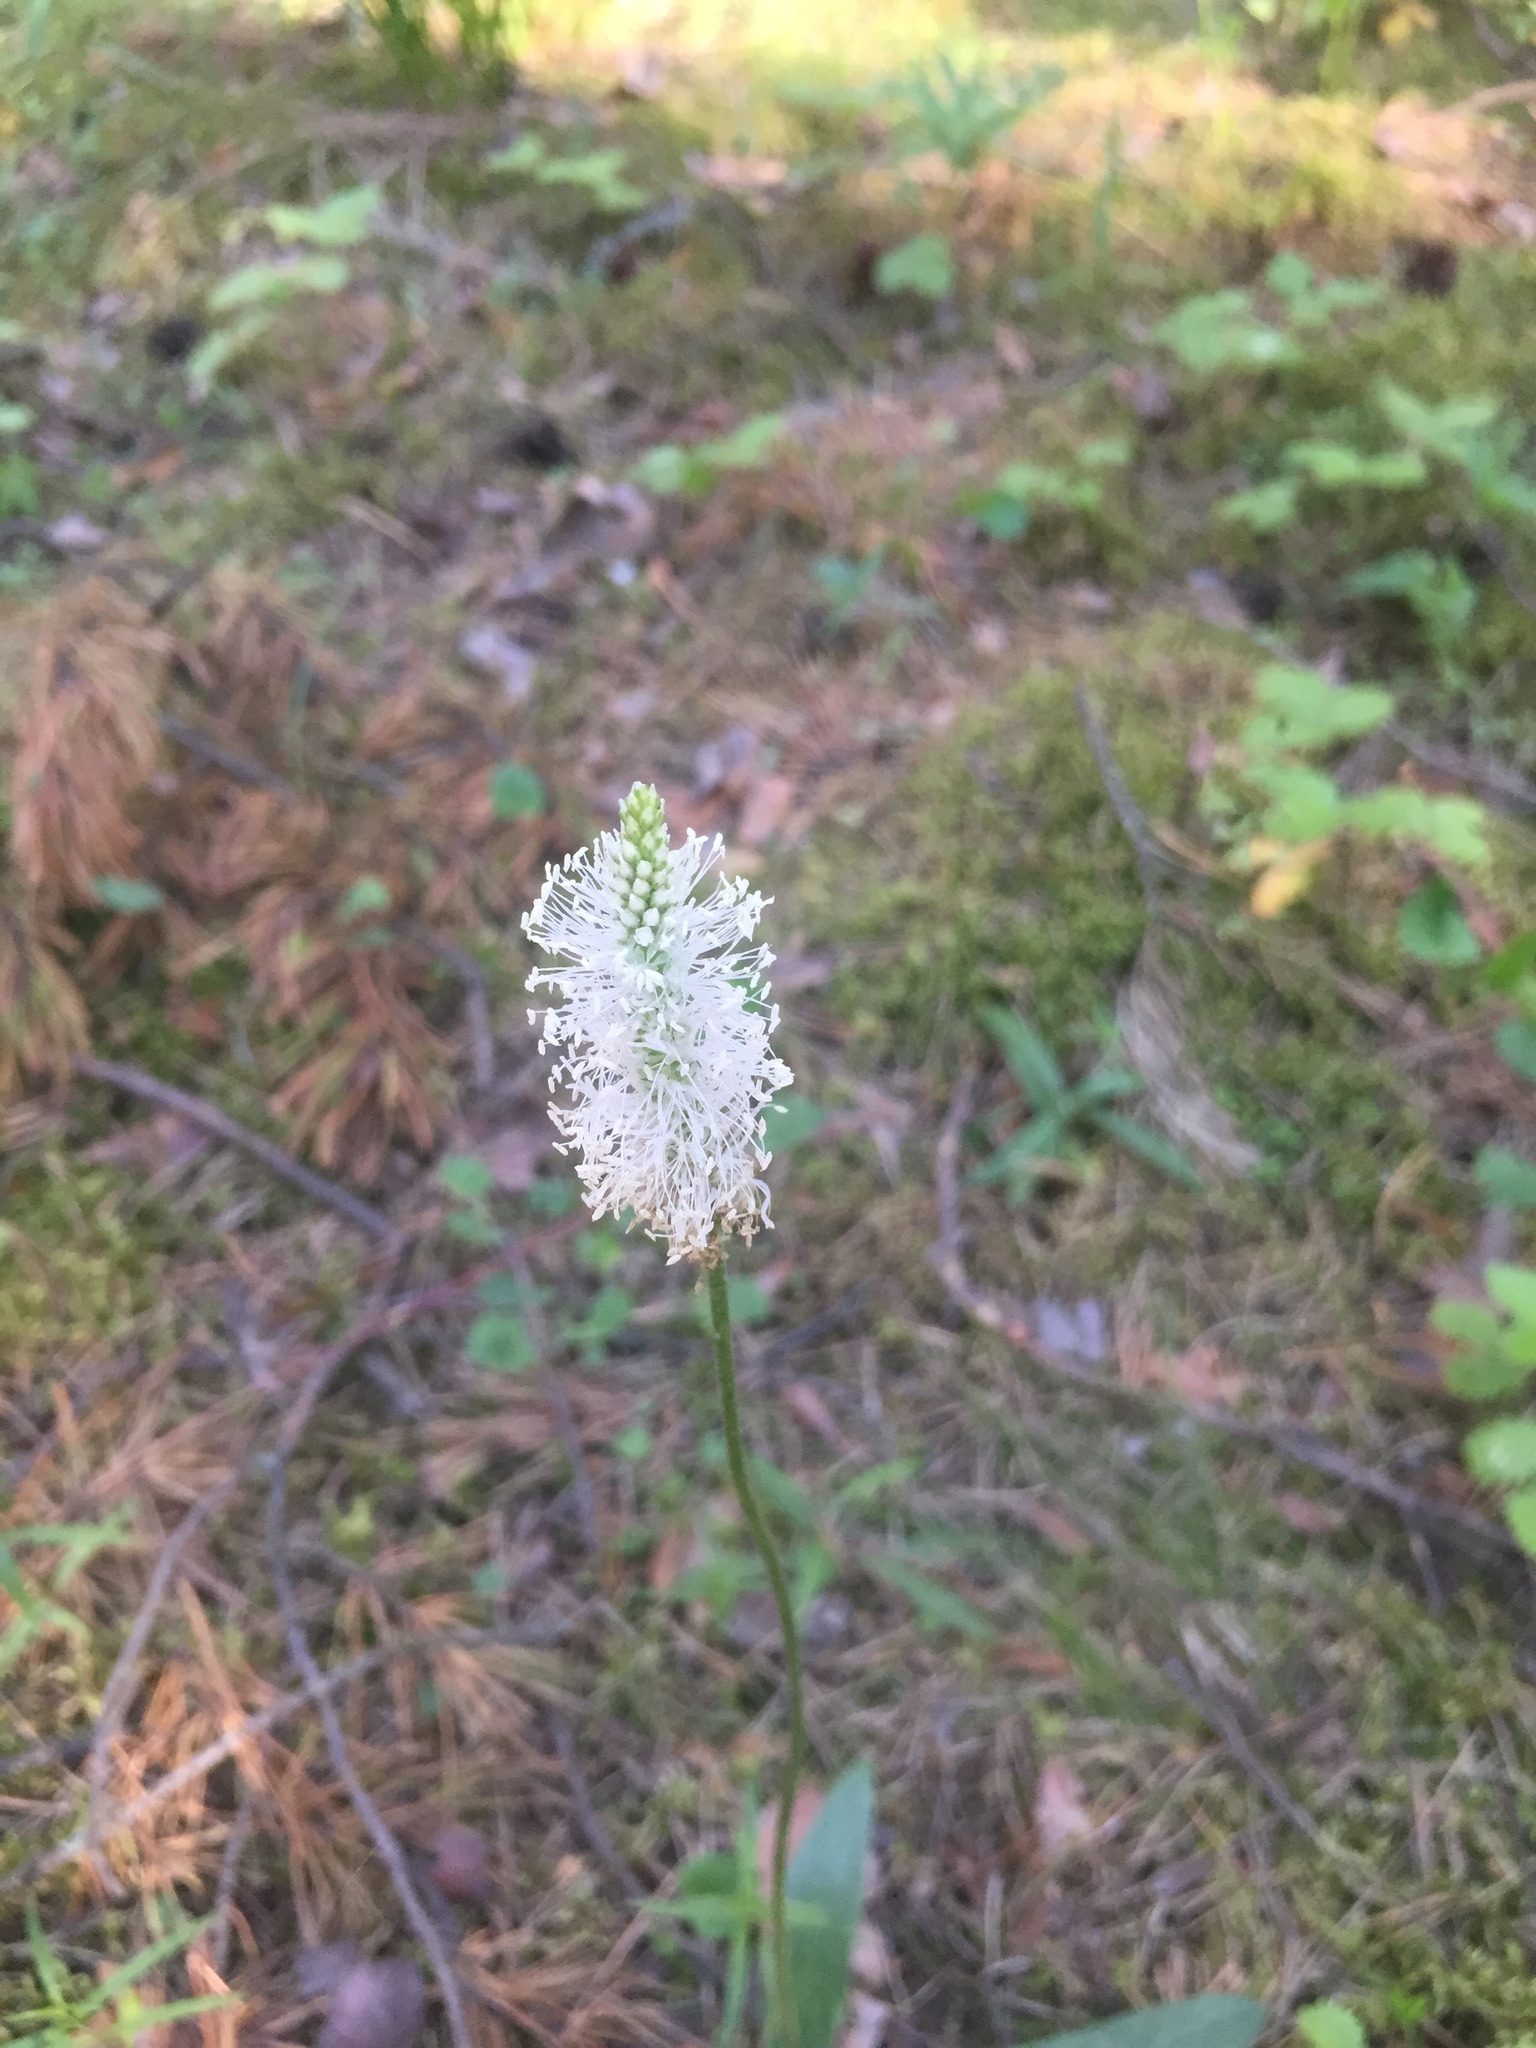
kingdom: Plantae
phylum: Tracheophyta
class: Magnoliopsida
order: Lamiales
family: Plantaginaceae
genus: Plantago
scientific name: Plantago media
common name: Hoary plantain
